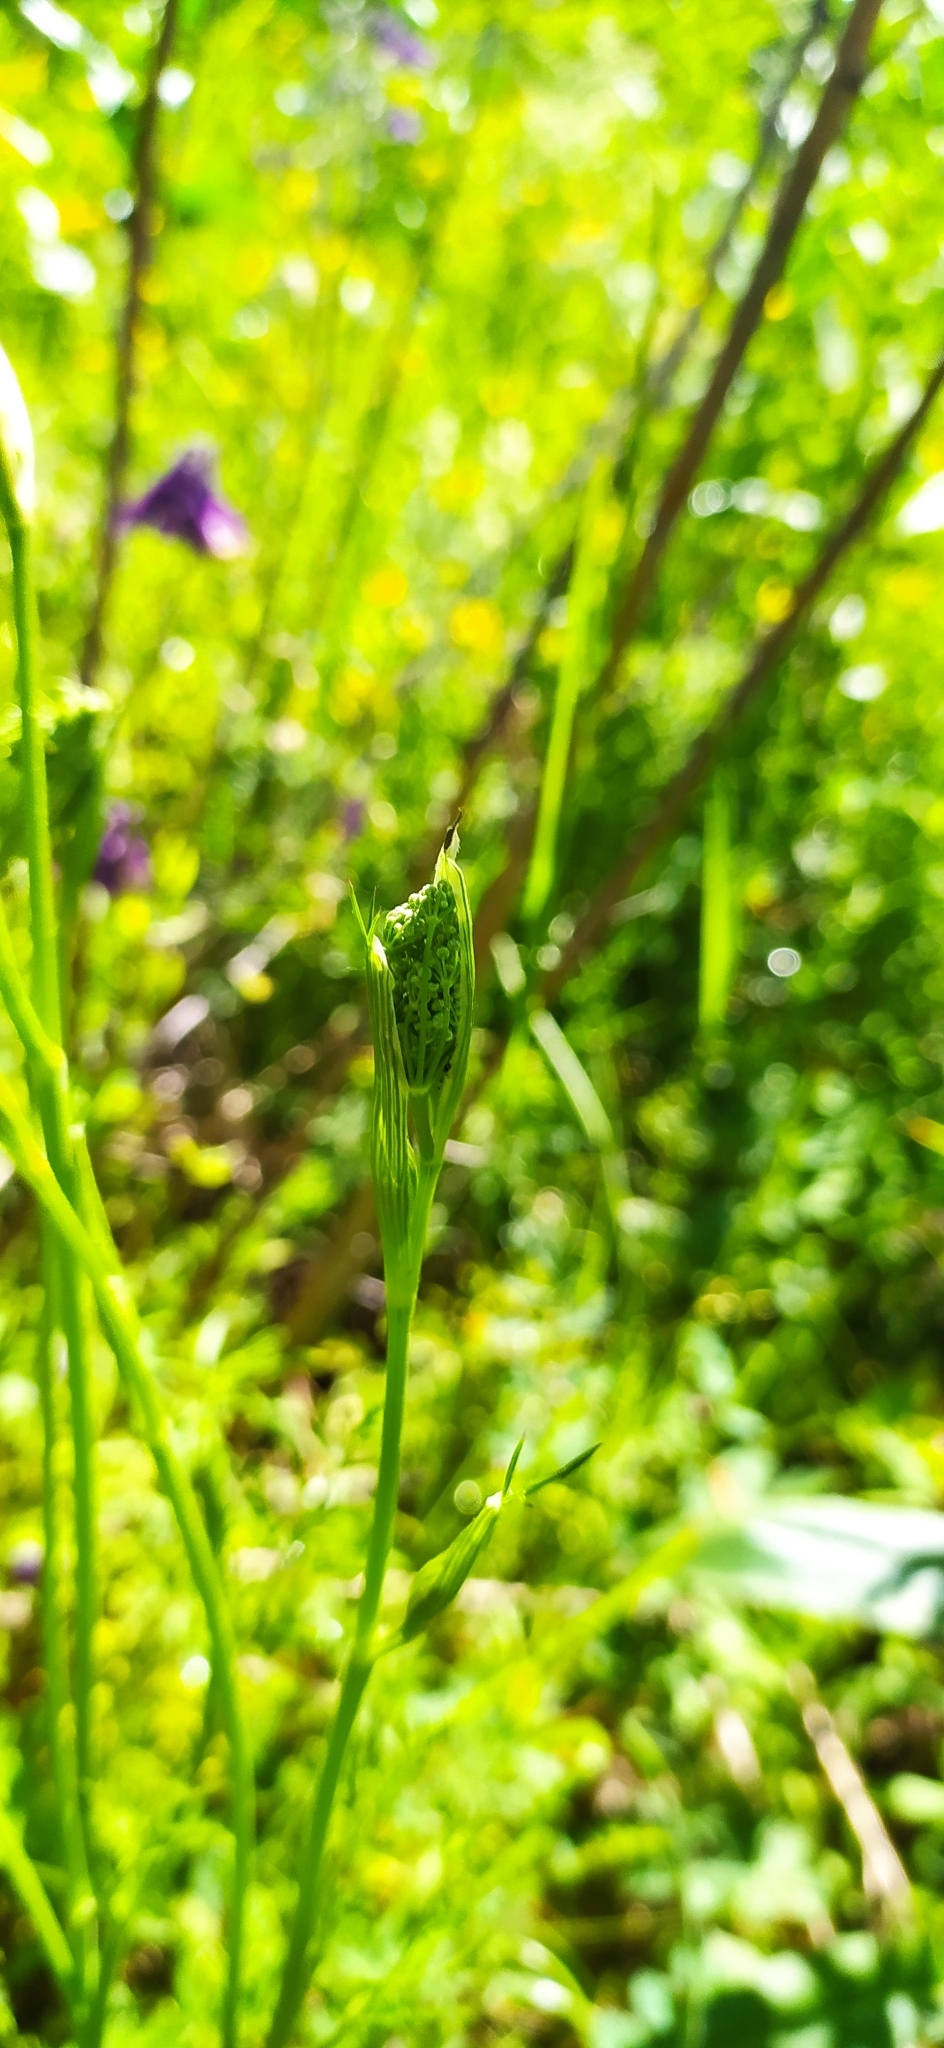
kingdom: Plantae
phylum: Tracheophyta
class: Magnoliopsida
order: Apiales
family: Apiaceae
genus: Pimpinella
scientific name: Pimpinella saxifraga
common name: Burnet-saxifrage
